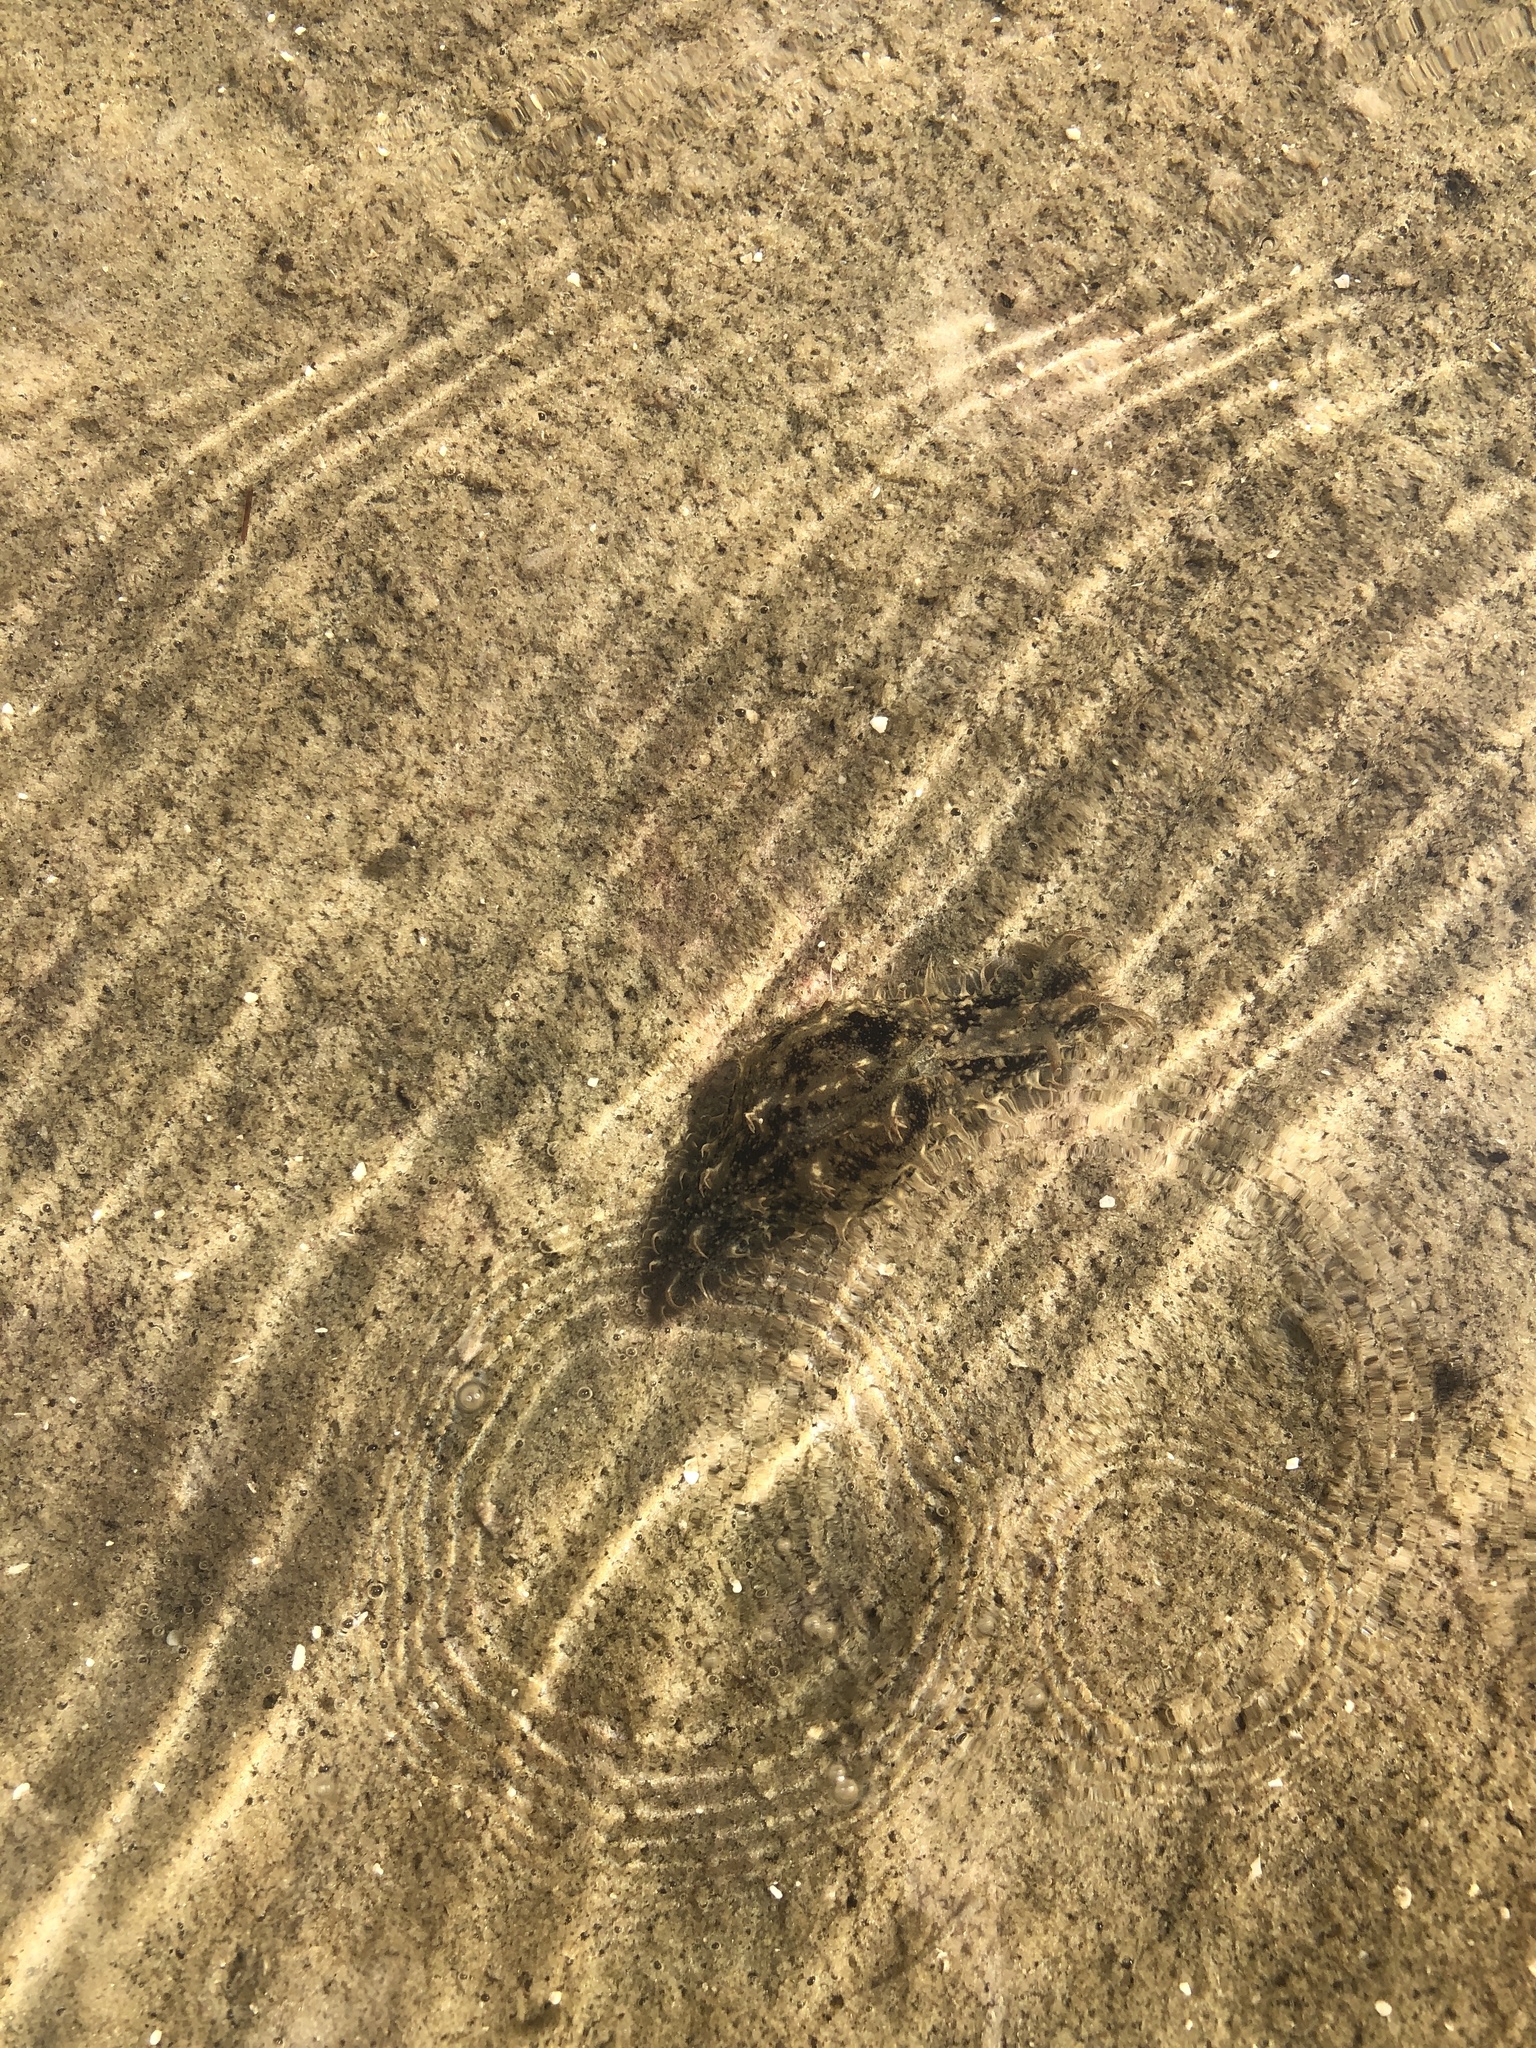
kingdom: Animalia
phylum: Mollusca
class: Gastropoda
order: Aplysiida
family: Aplysiidae
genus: Bursatella
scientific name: Bursatella leachii
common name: Shaggy sea hare
